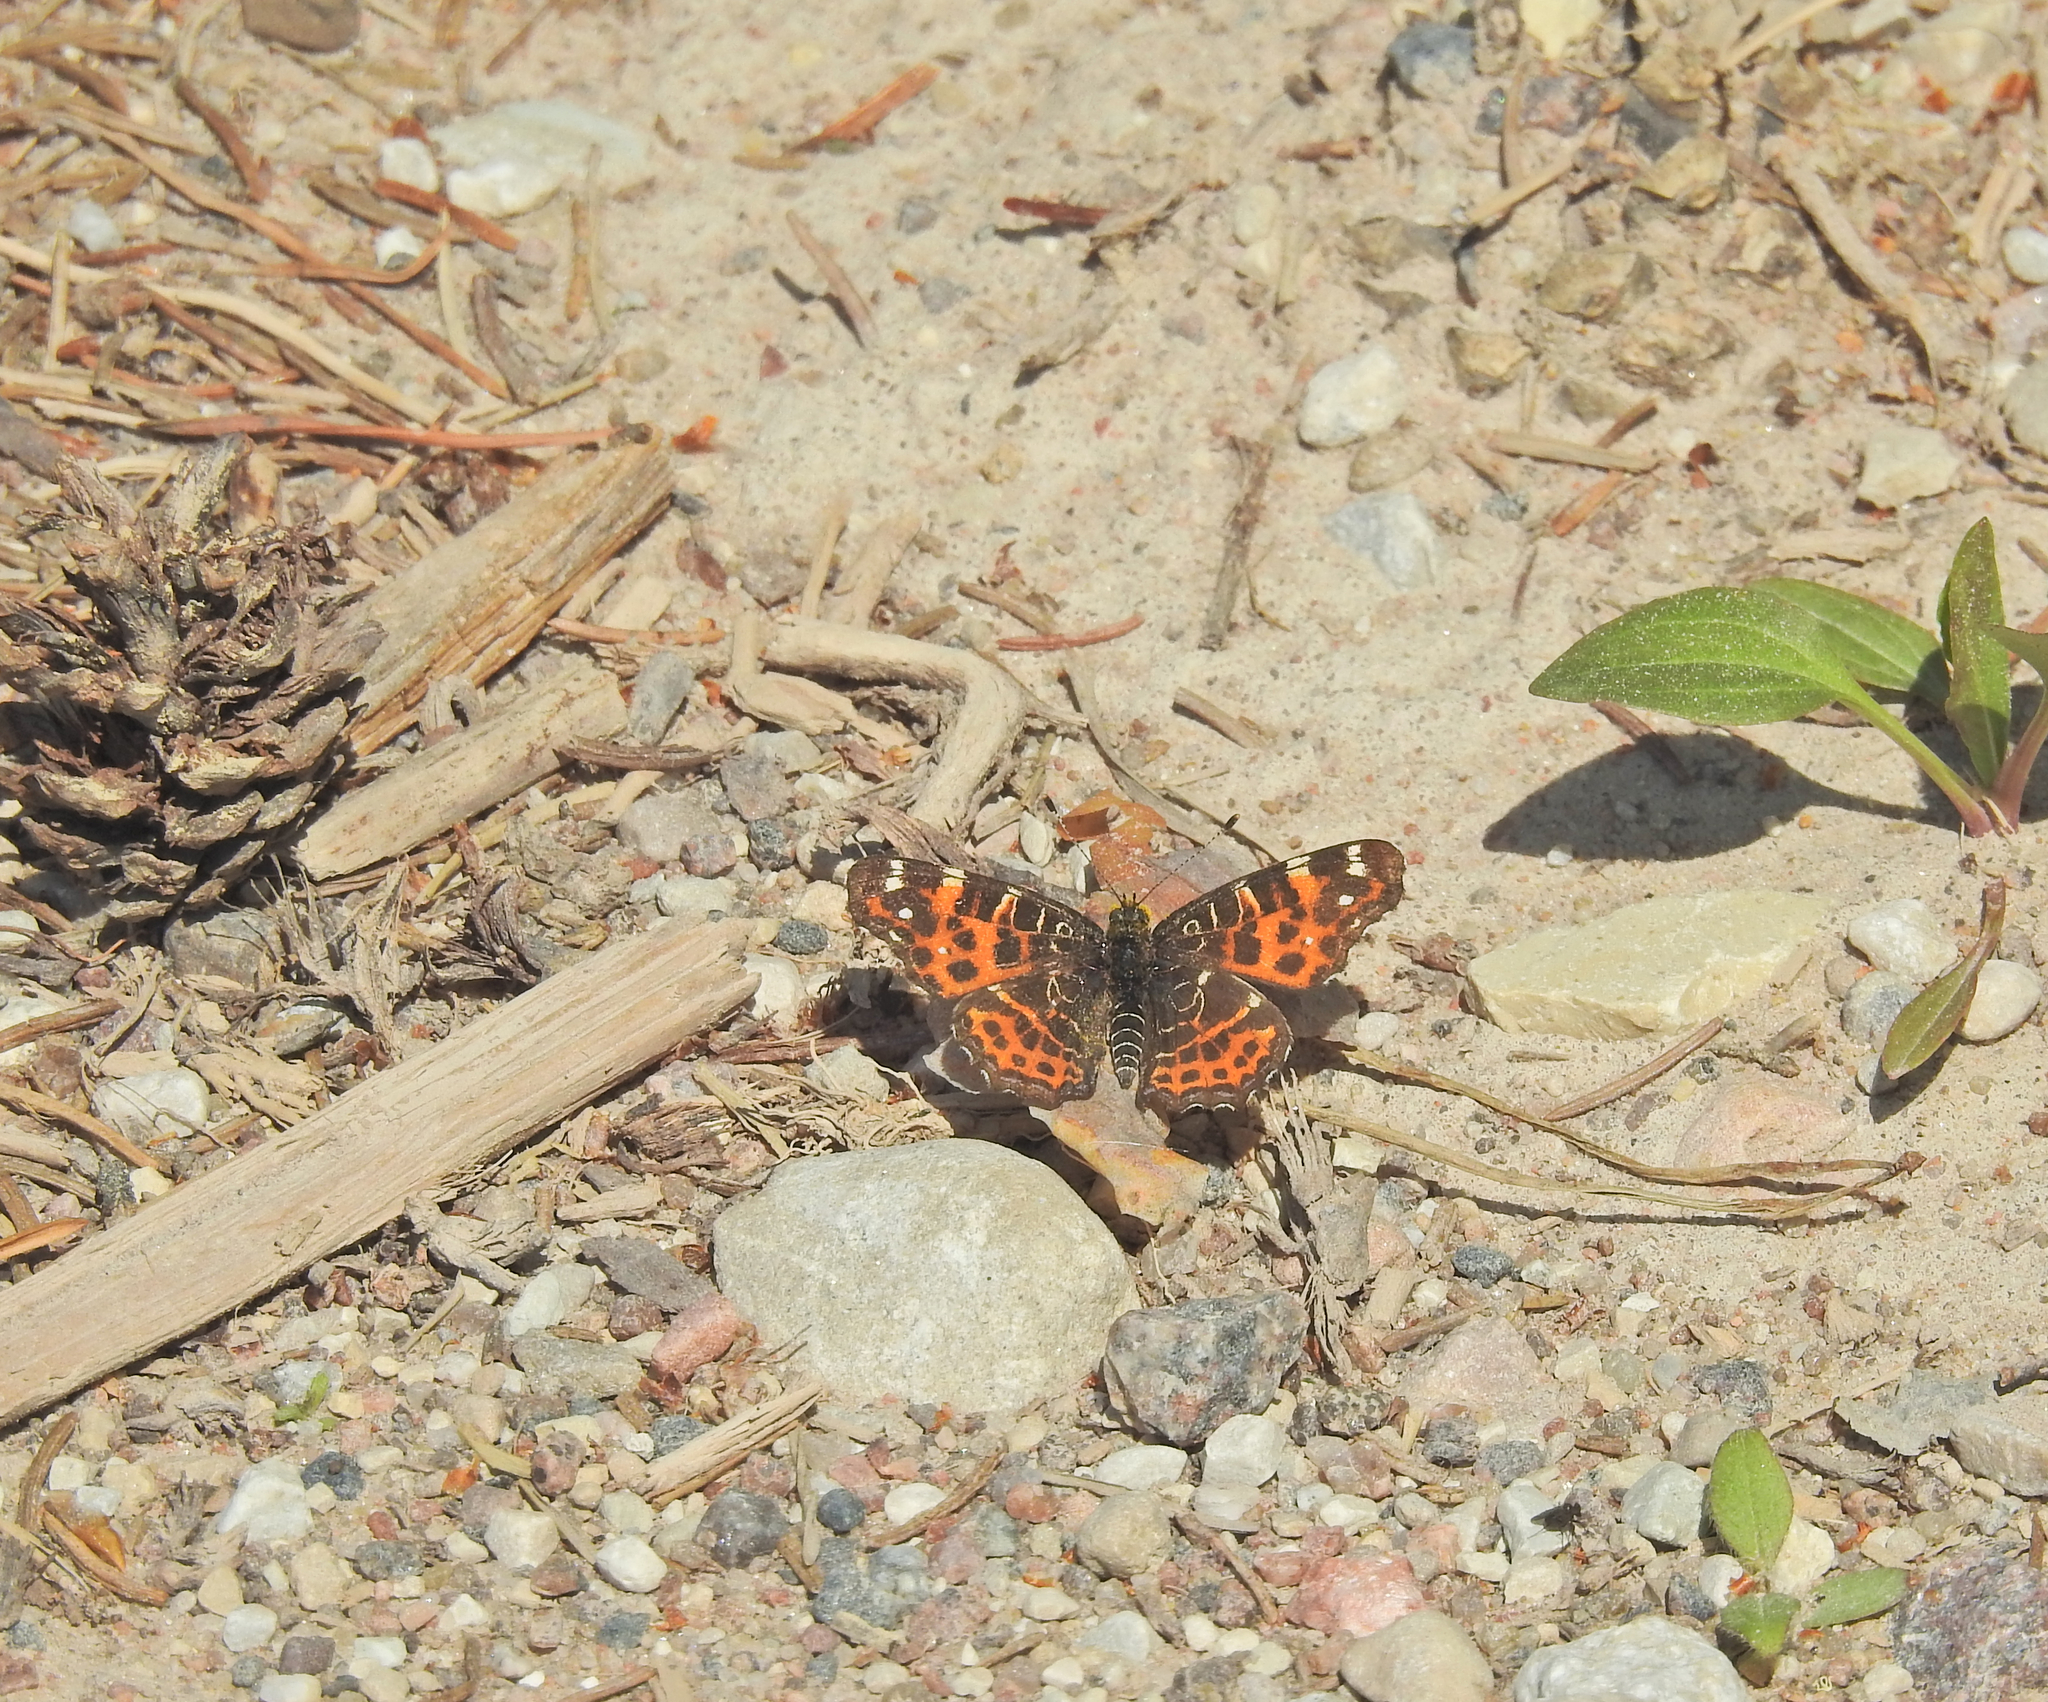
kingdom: Animalia
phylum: Arthropoda
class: Insecta
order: Lepidoptera
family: Nymphalidae
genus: Araschnia
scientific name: Araschnia levana
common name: Map butterfly
